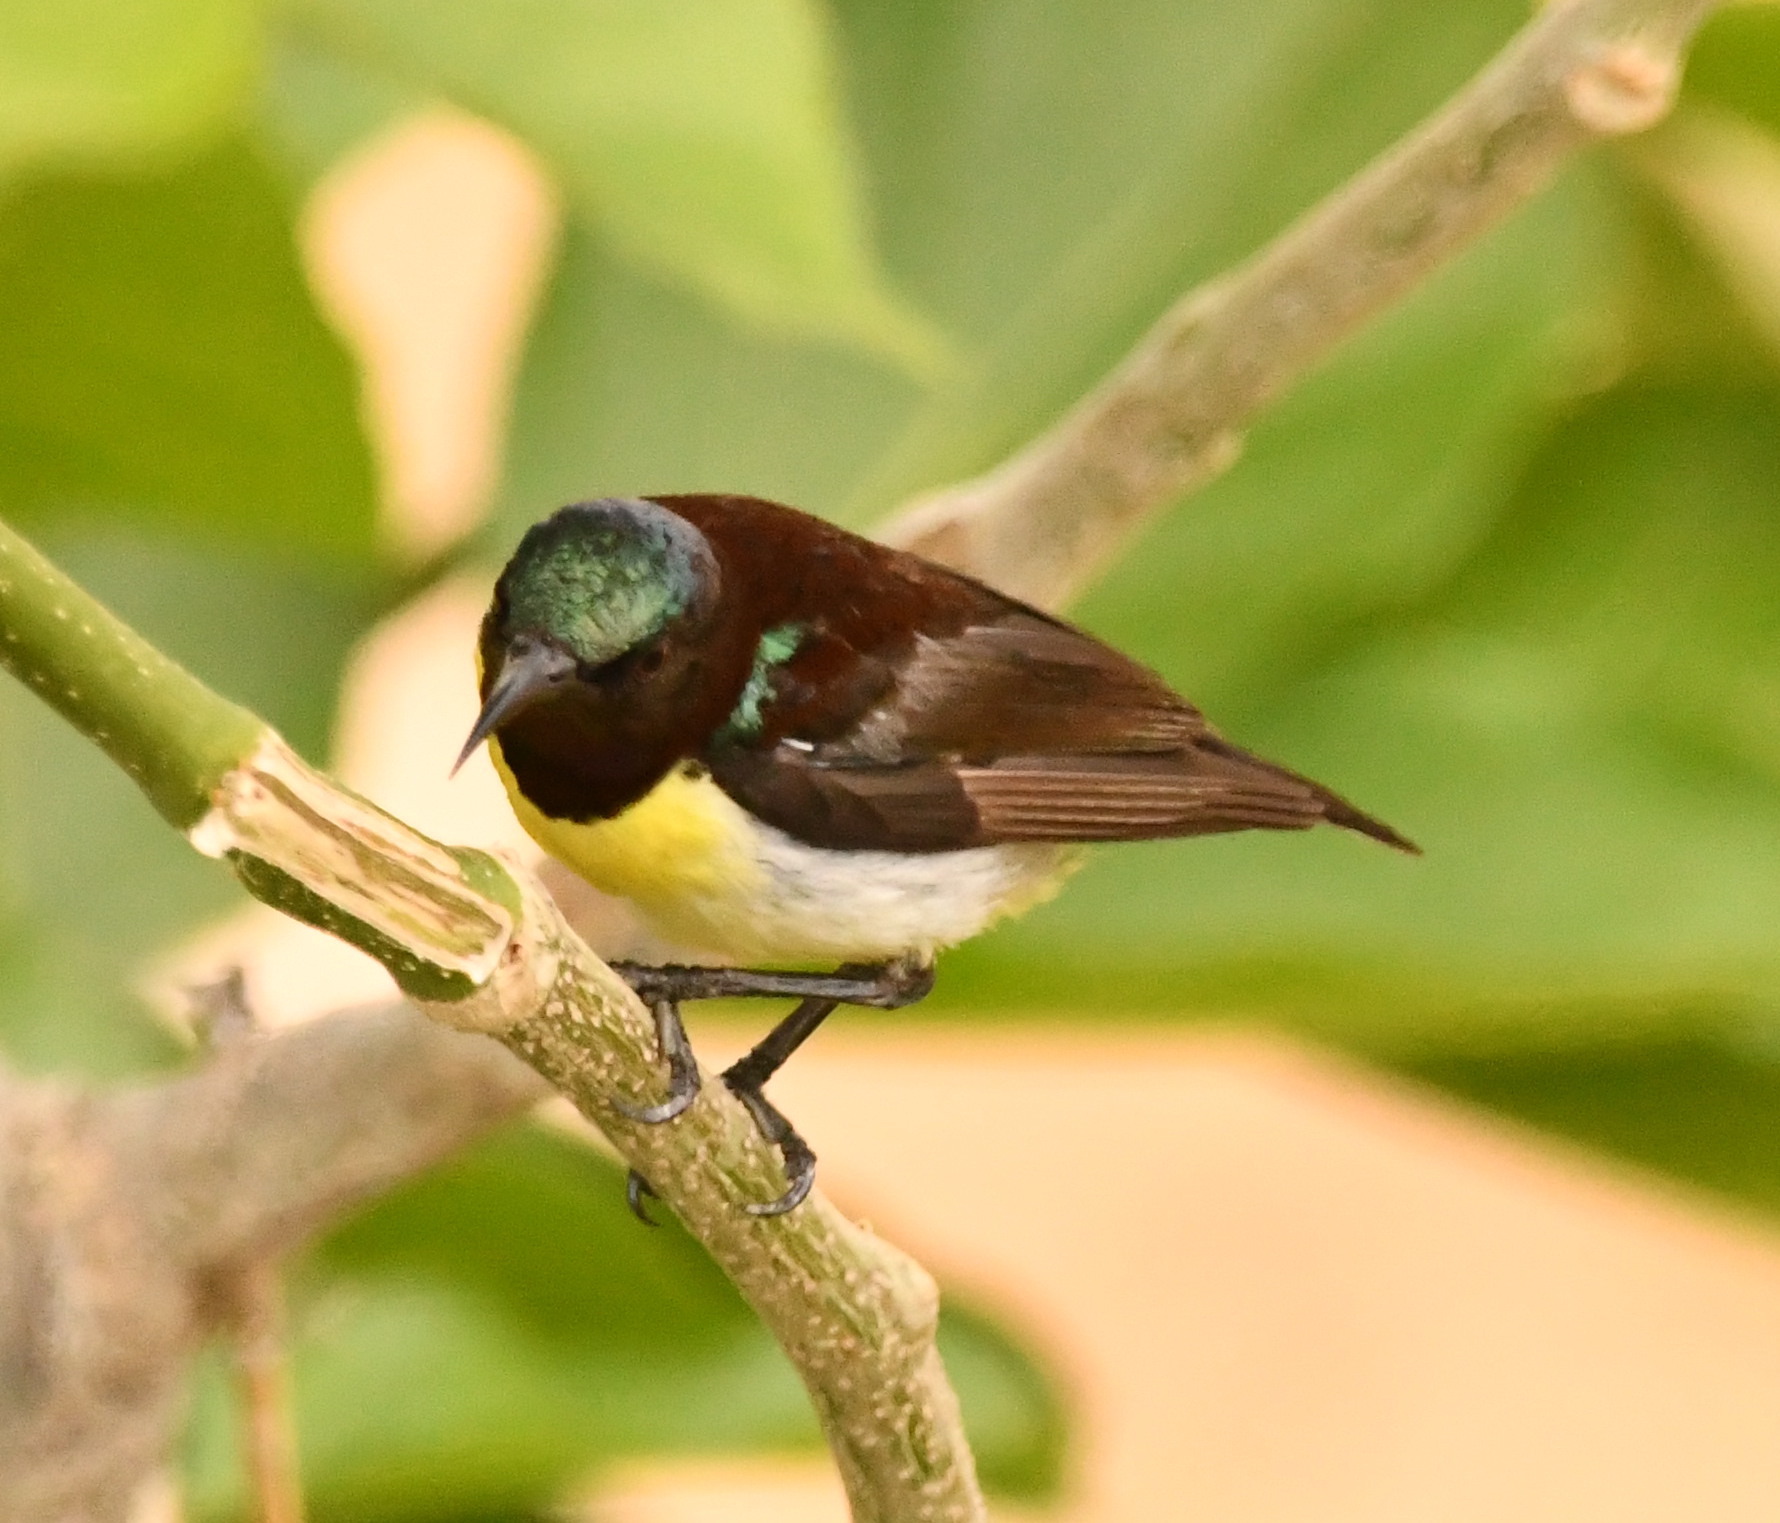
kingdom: Animalia
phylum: Chordata
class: Aves
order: Passeriformes
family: Nectariniidae
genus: Leptocoma
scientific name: Leptocoma zeylonica
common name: Purple-rumped sunbird
